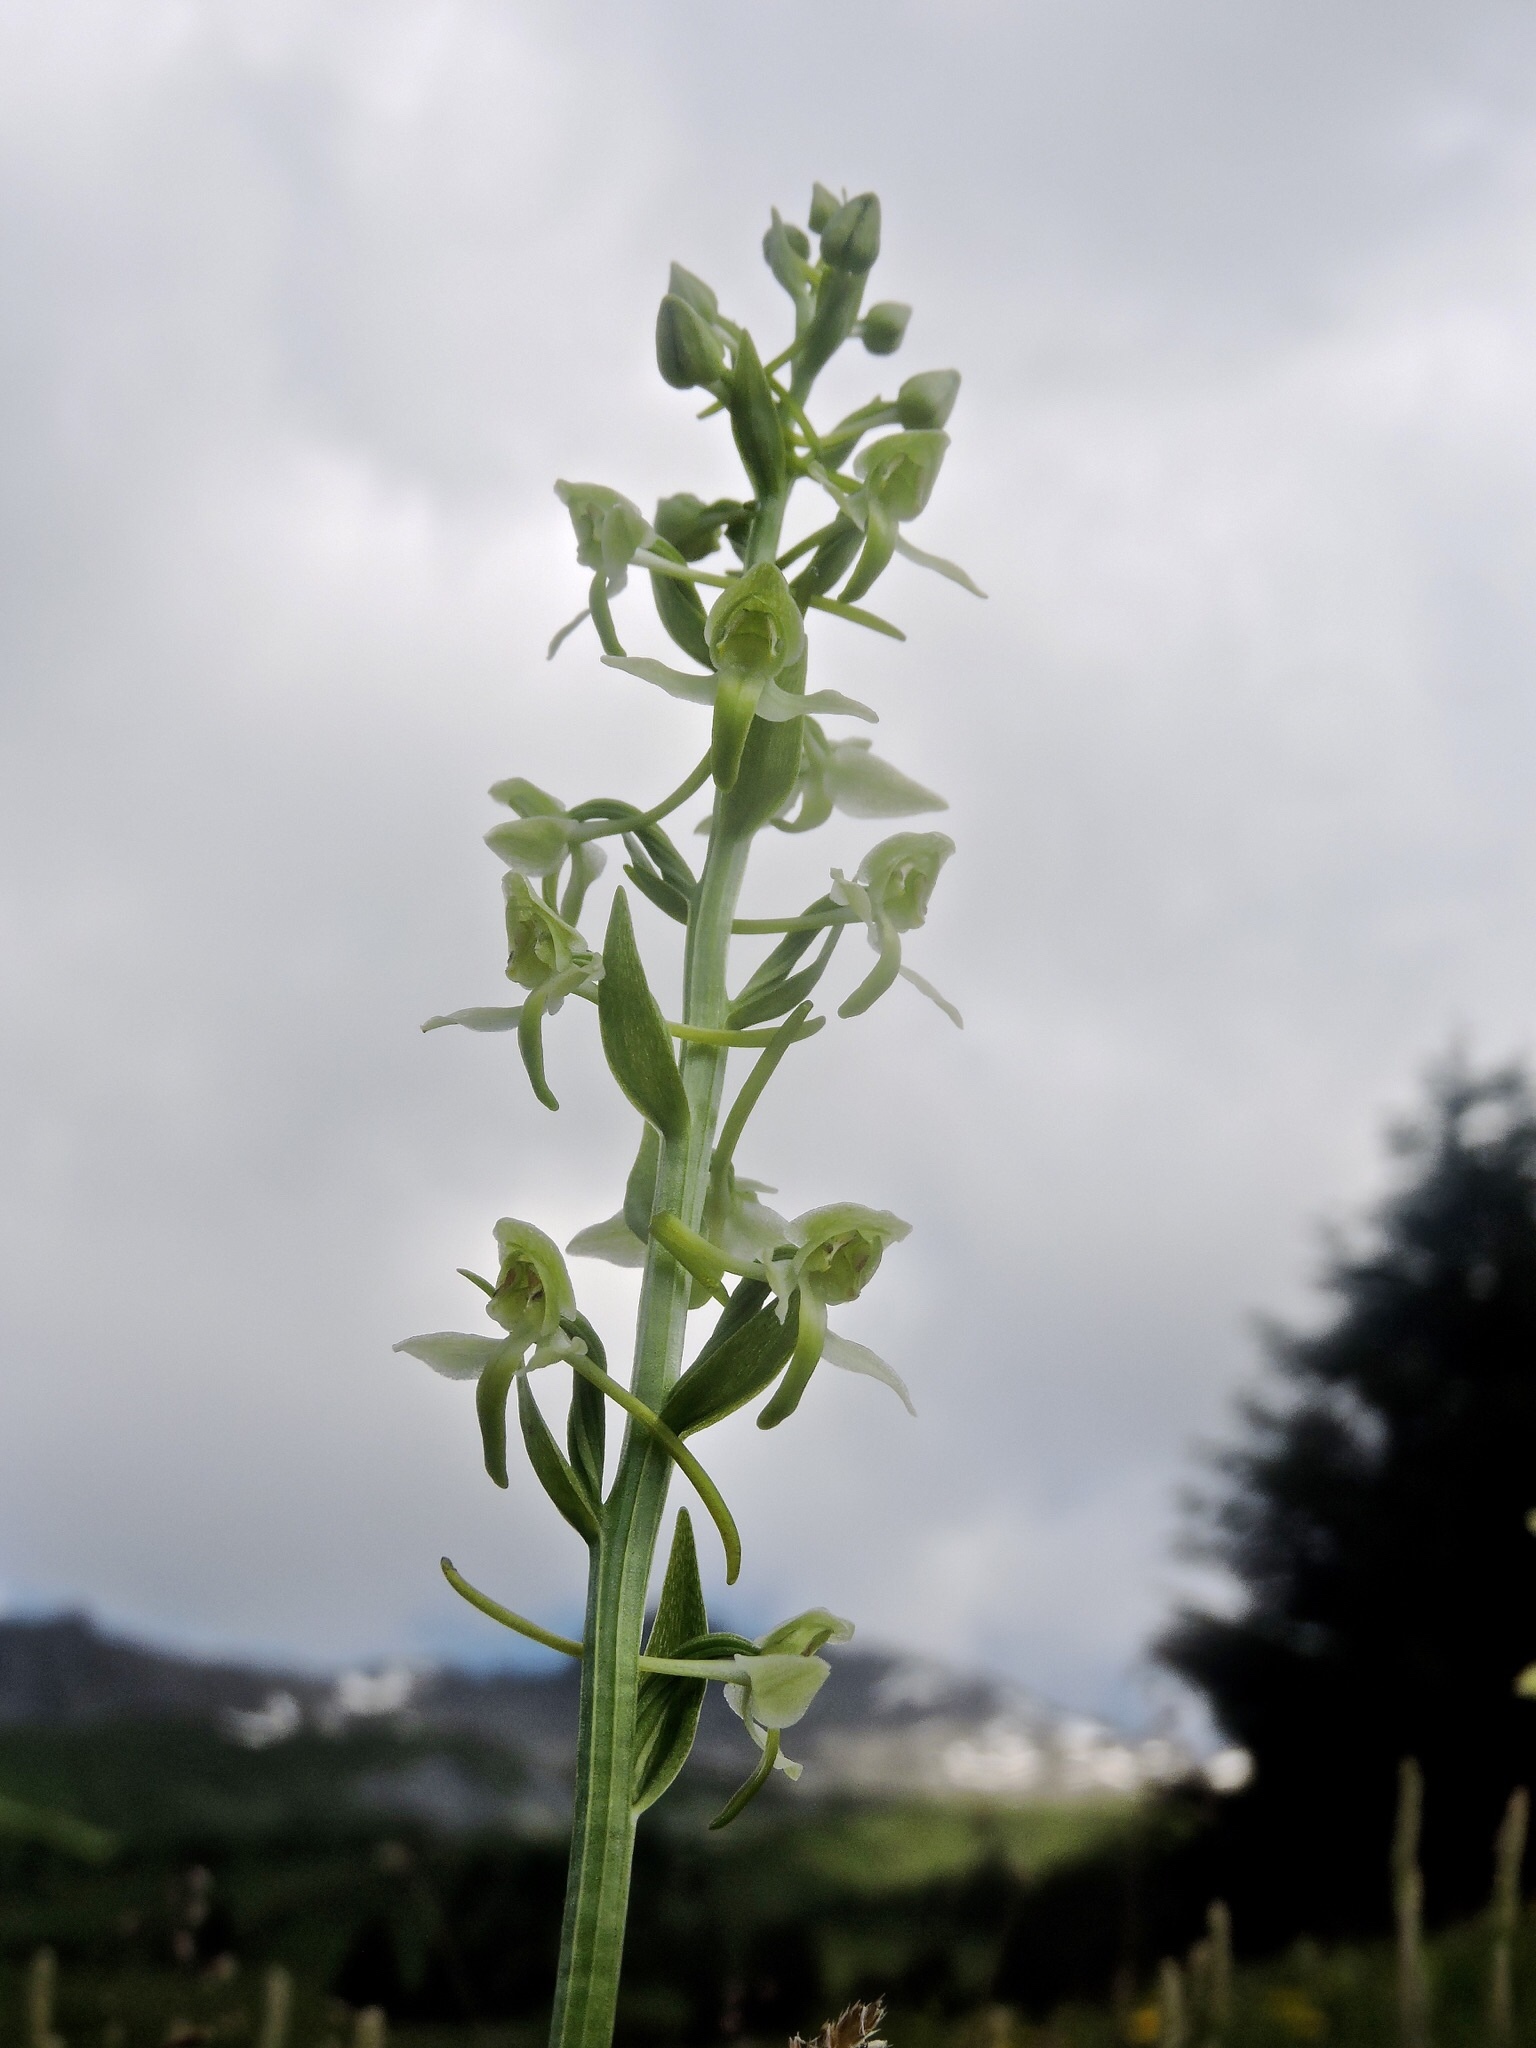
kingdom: Plantae
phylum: Tracheophyta
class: Liliopsida
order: Asparagales
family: Orchidaceae
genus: Platanthera
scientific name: Platanthera chlorantha
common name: Greater butterfly-orchid
